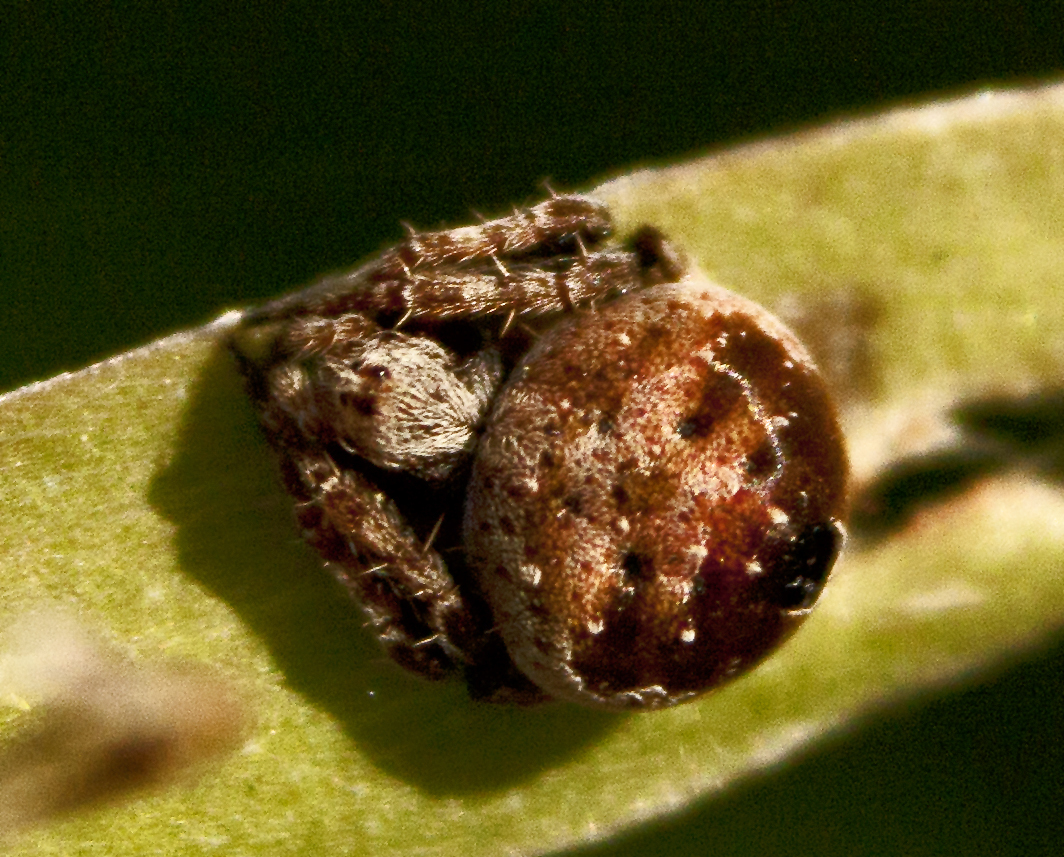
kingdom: Animalia
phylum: Arthropoda
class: Arachnida
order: Araneae
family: Araneidae
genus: Araneus
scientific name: Araneus rotundulus
